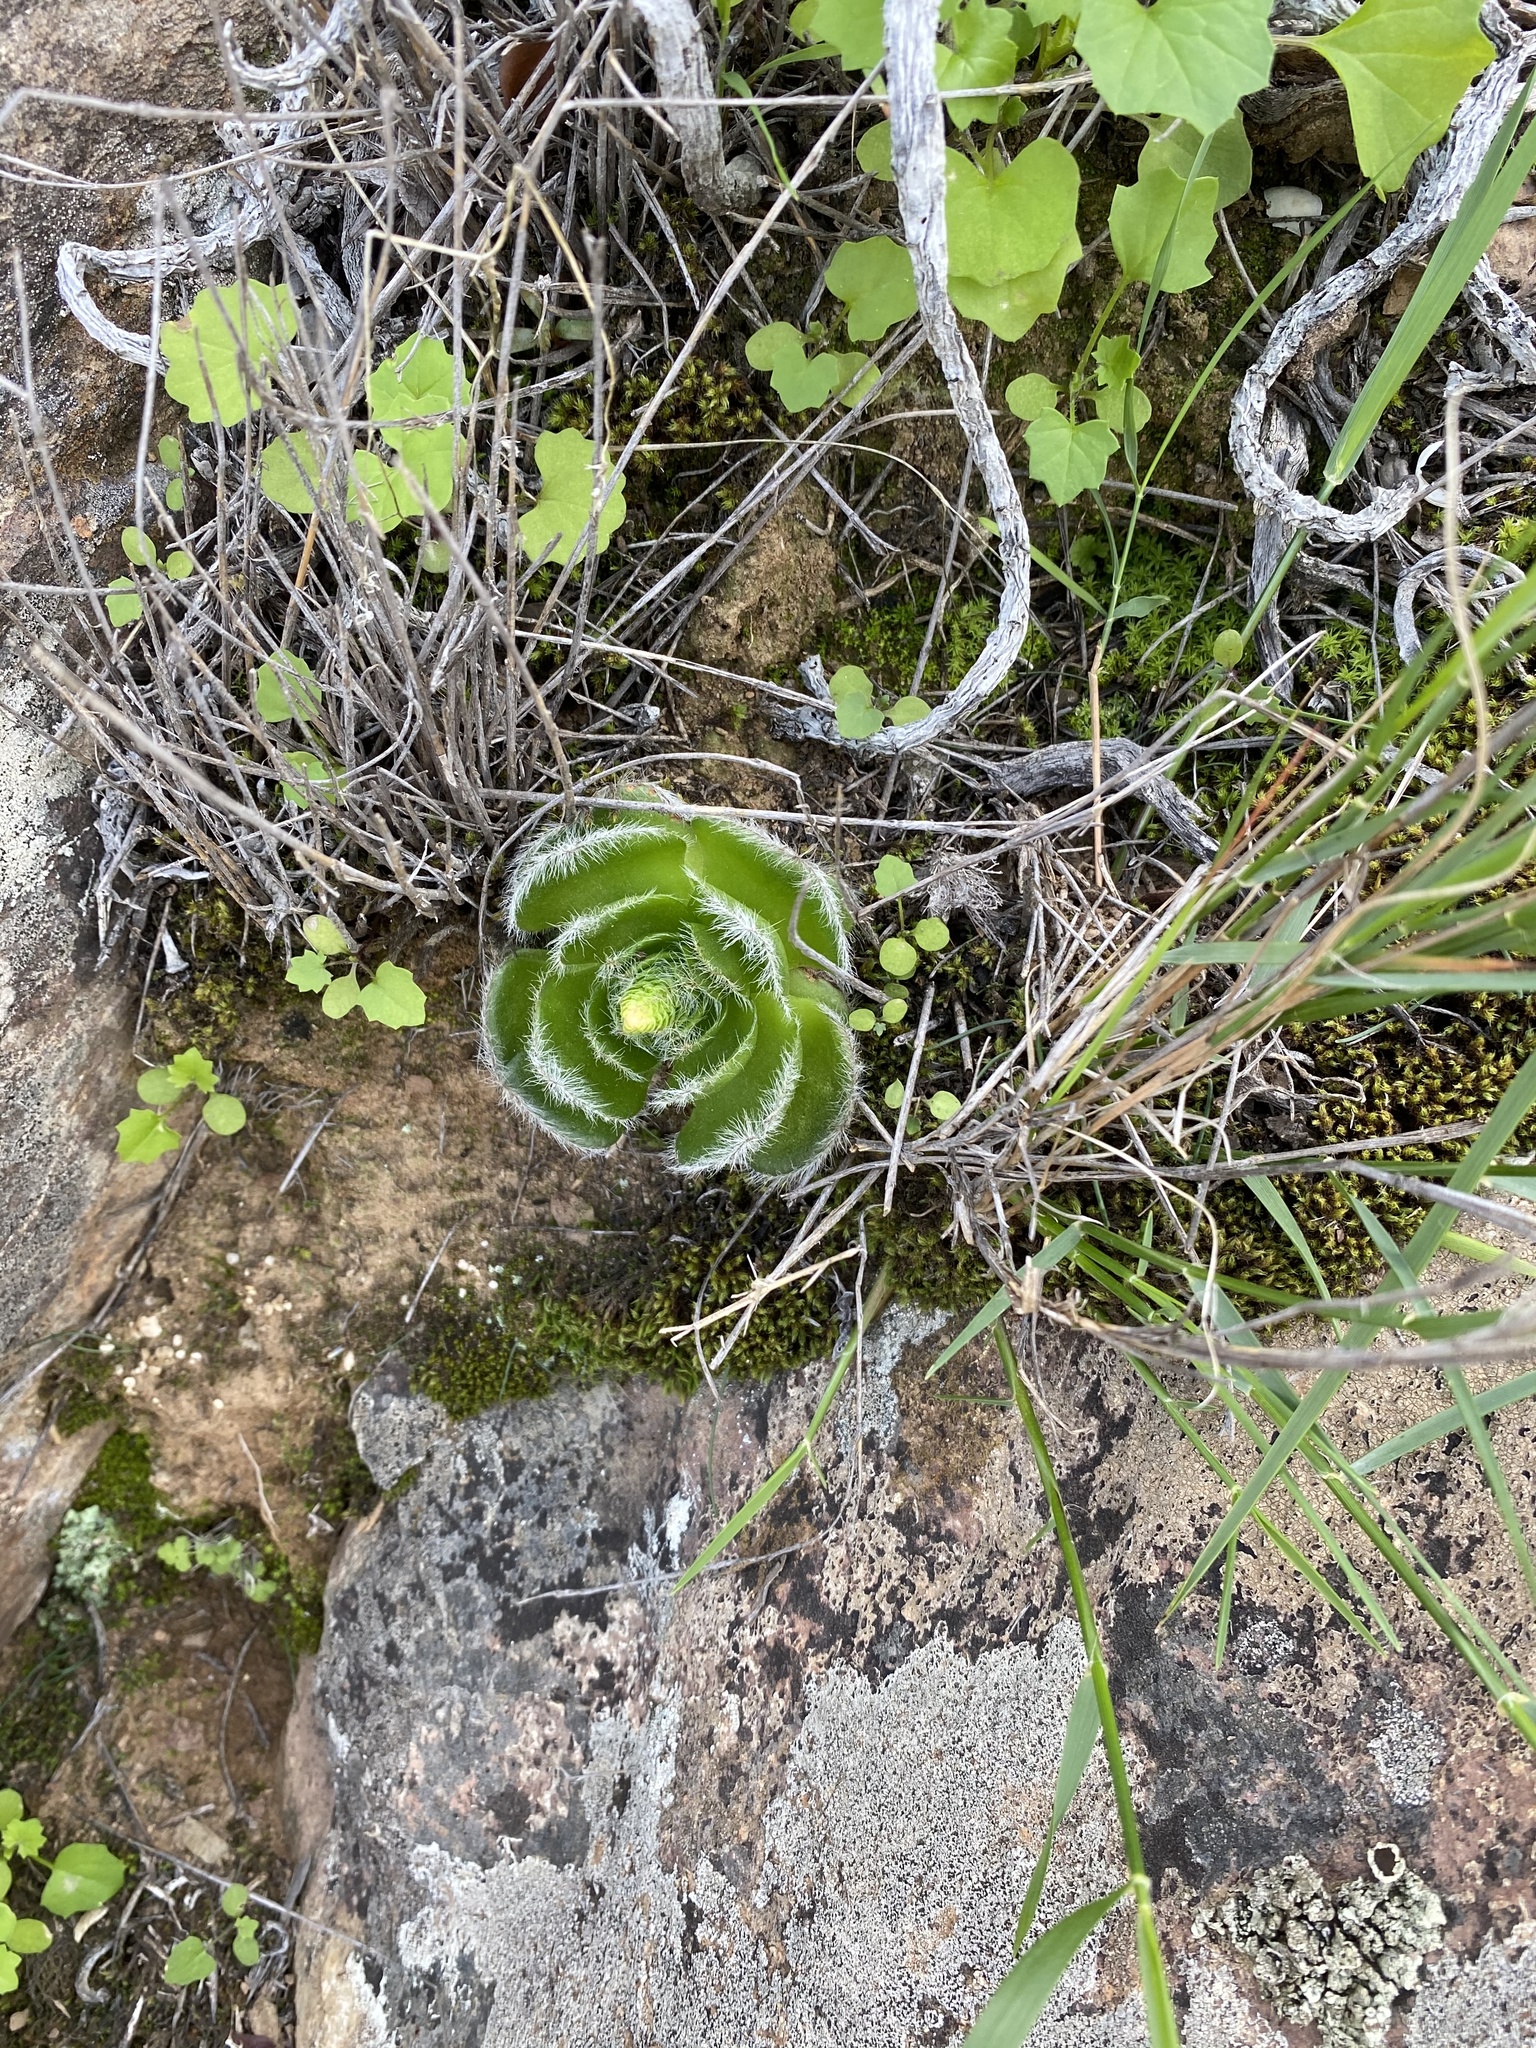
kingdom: Plantae
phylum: Tracheophyta
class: Magnoliopsida
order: Saxifragales
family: Crassulaceae
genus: Crassula
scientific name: Crassula barbata
